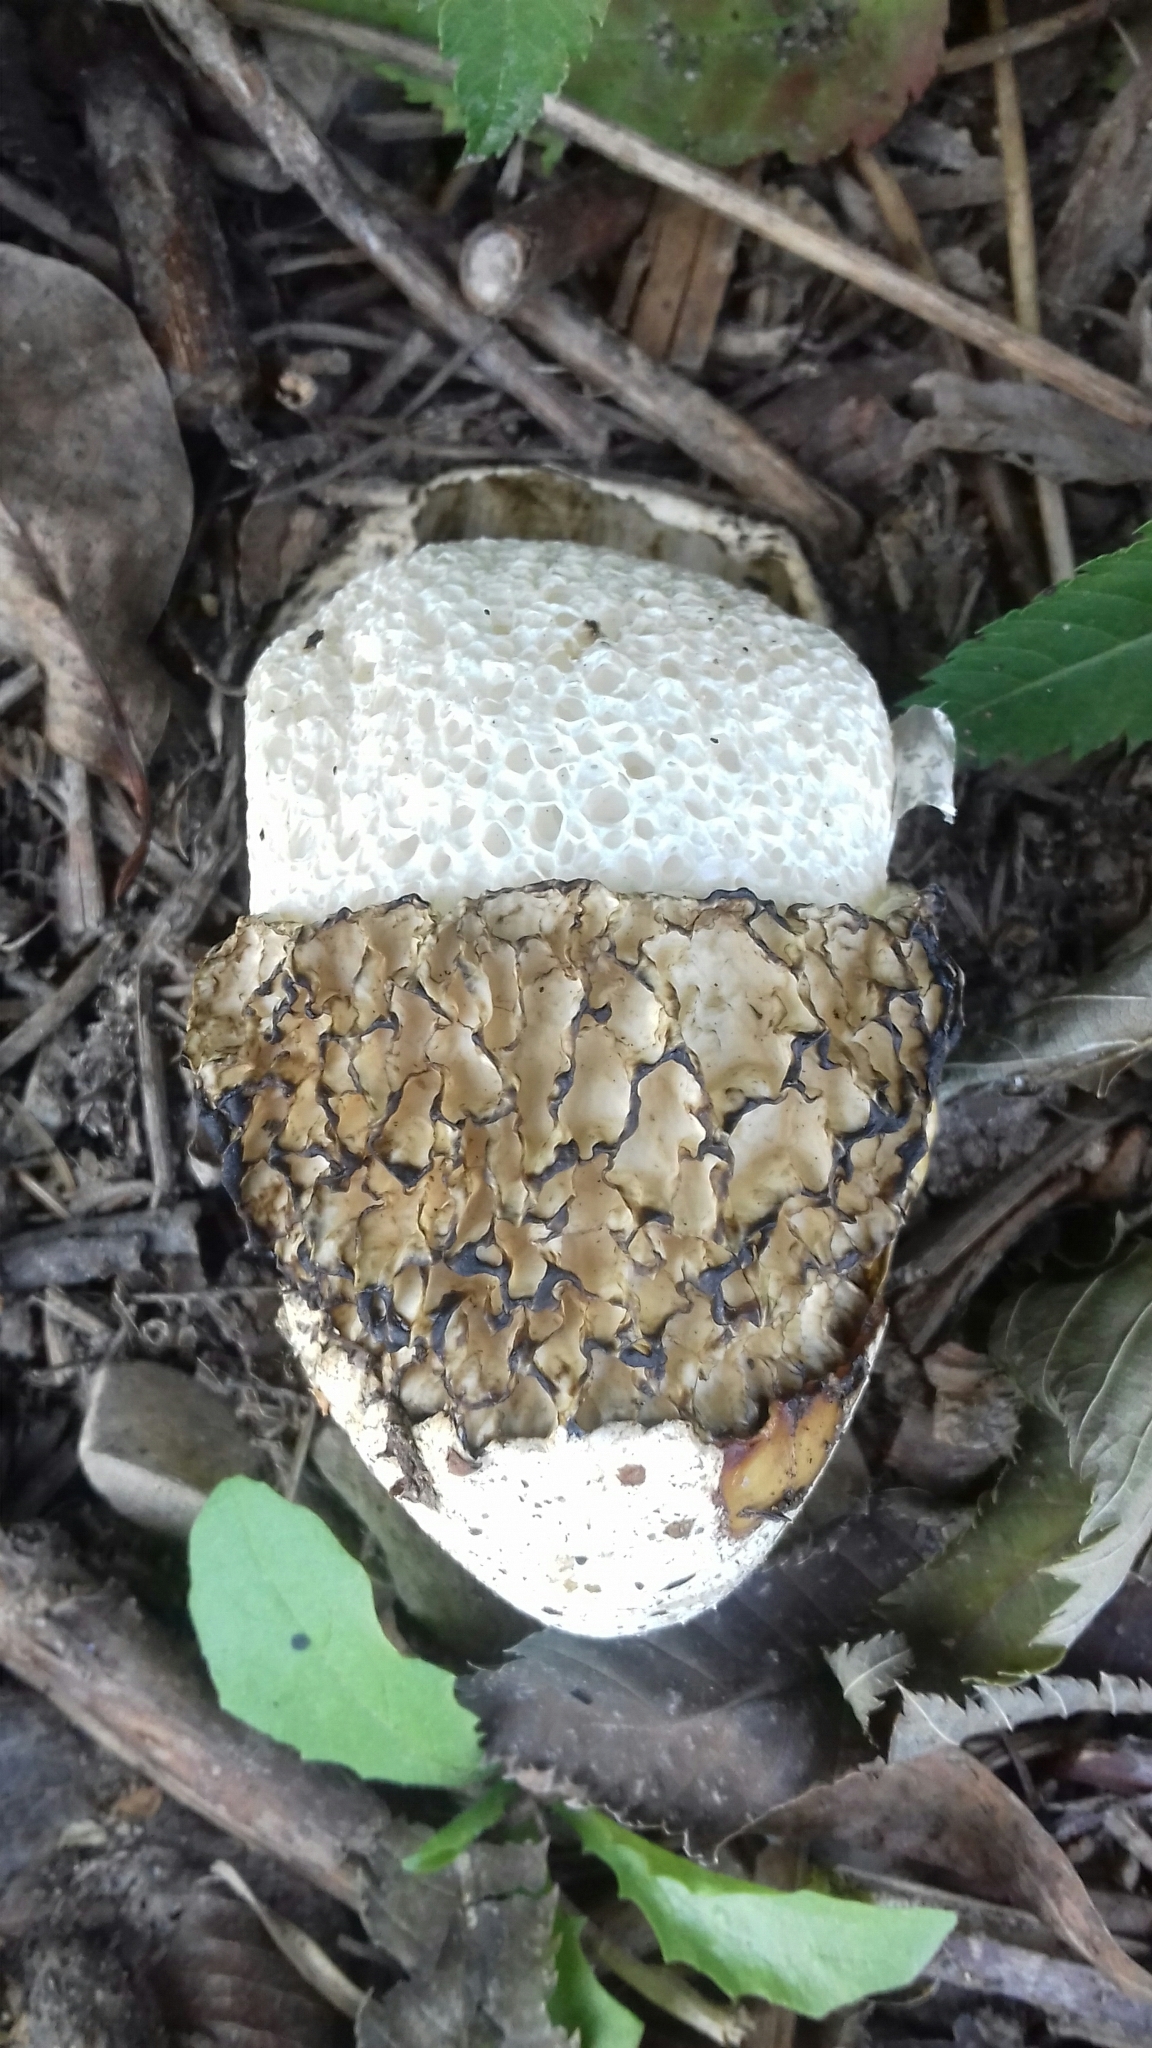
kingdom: Fungi
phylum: Basidiomycota
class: Agaricomycetes
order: Phallales
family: Phallaceae
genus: Phallus
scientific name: Phallus impudicus
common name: Common stinkhorn
